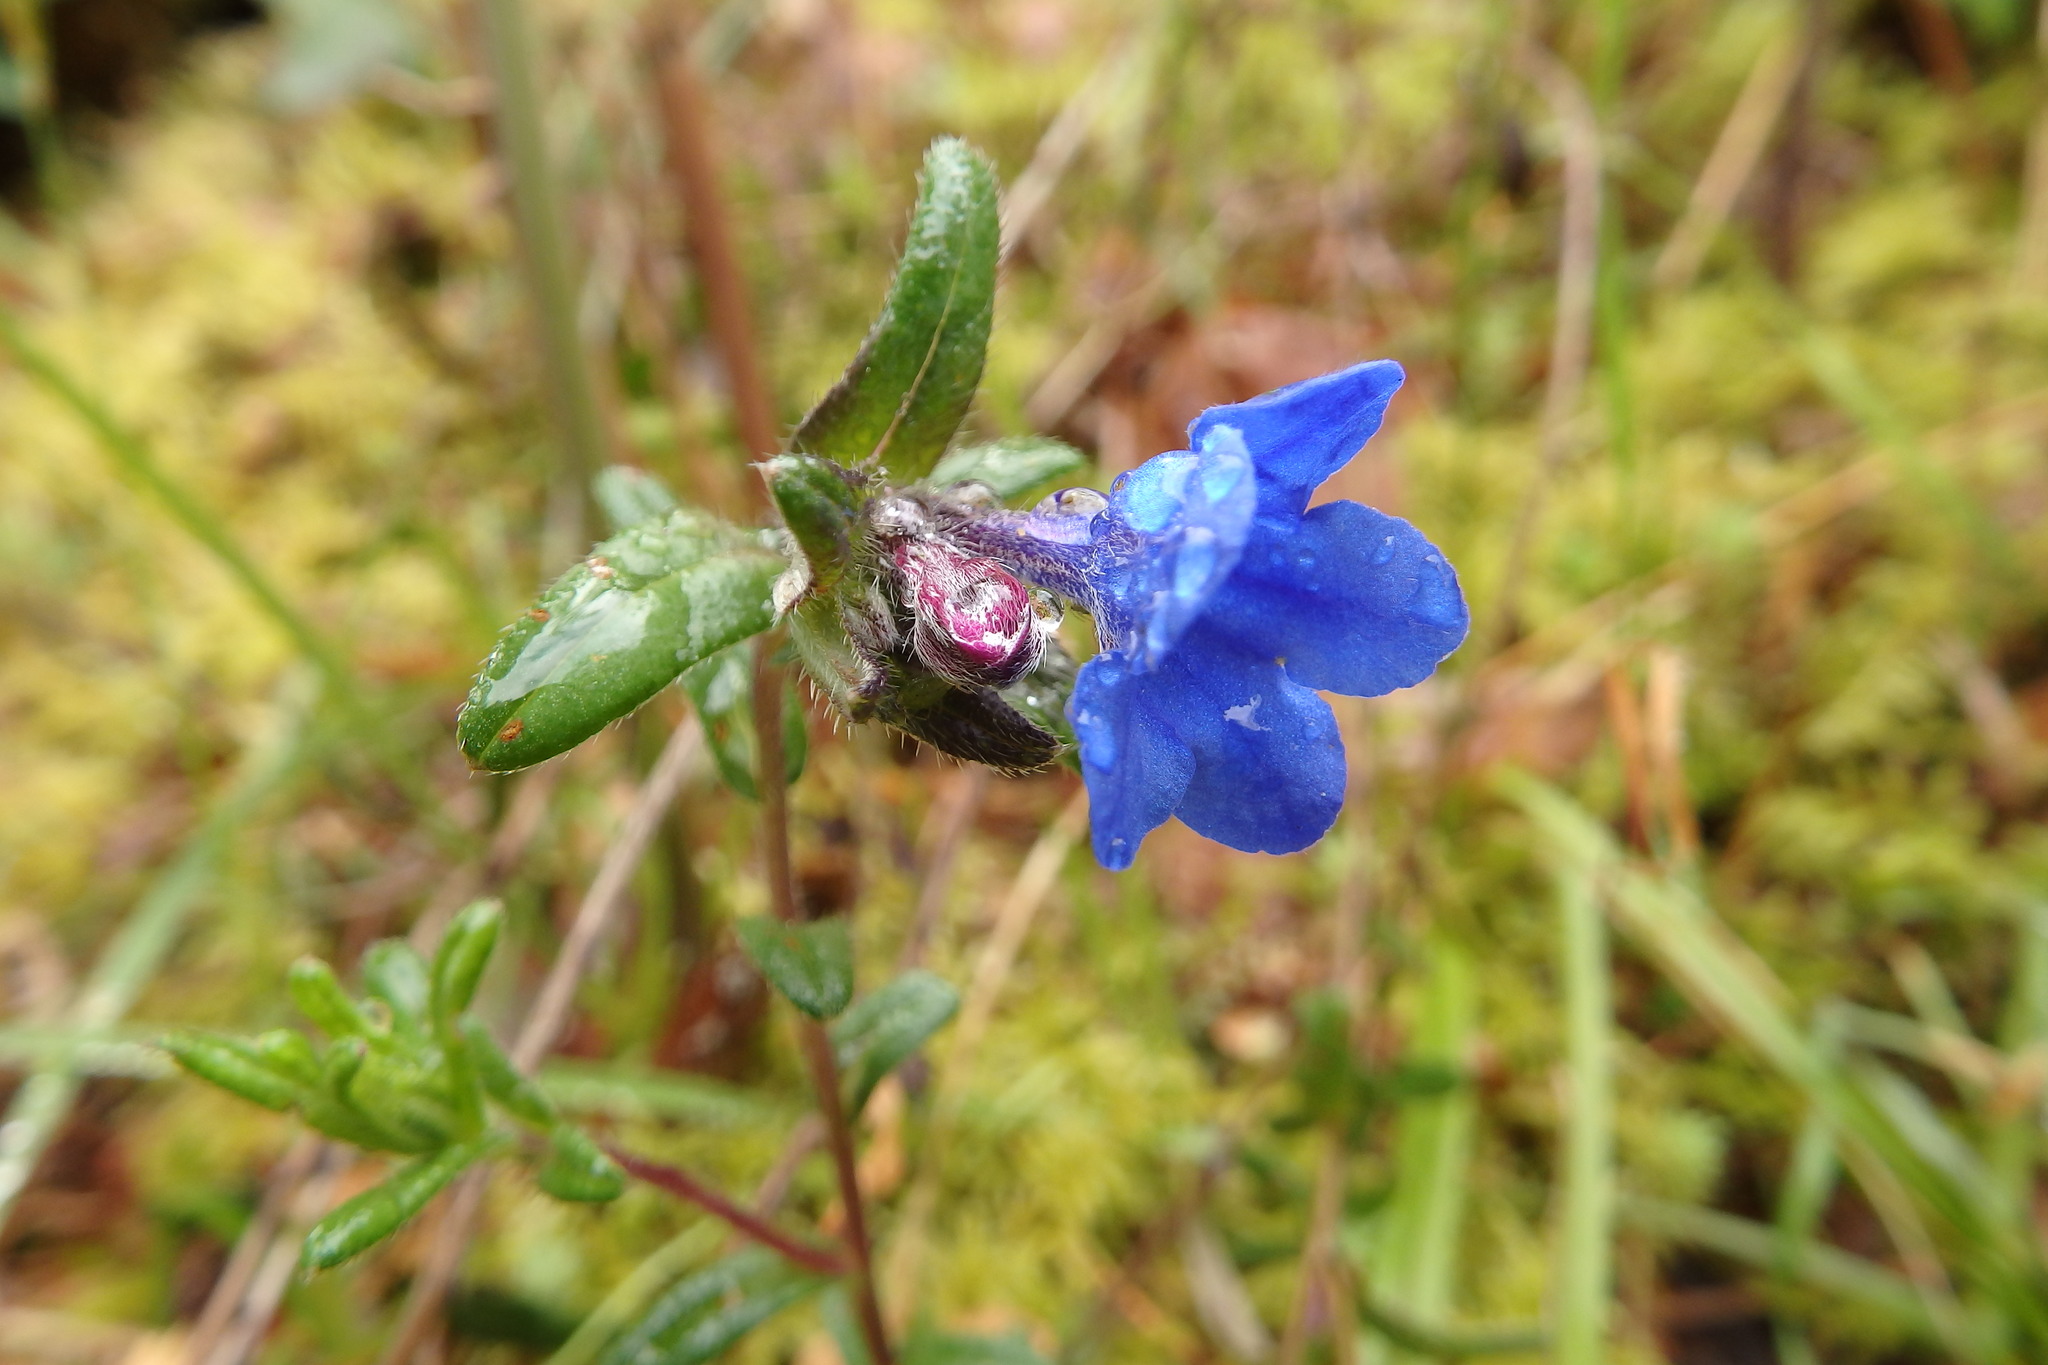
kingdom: Plantae
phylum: Tracheophyta
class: Magnoliopsida
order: Boraginales
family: Boraginaceae
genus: Glandora
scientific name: Glandora prostrata
